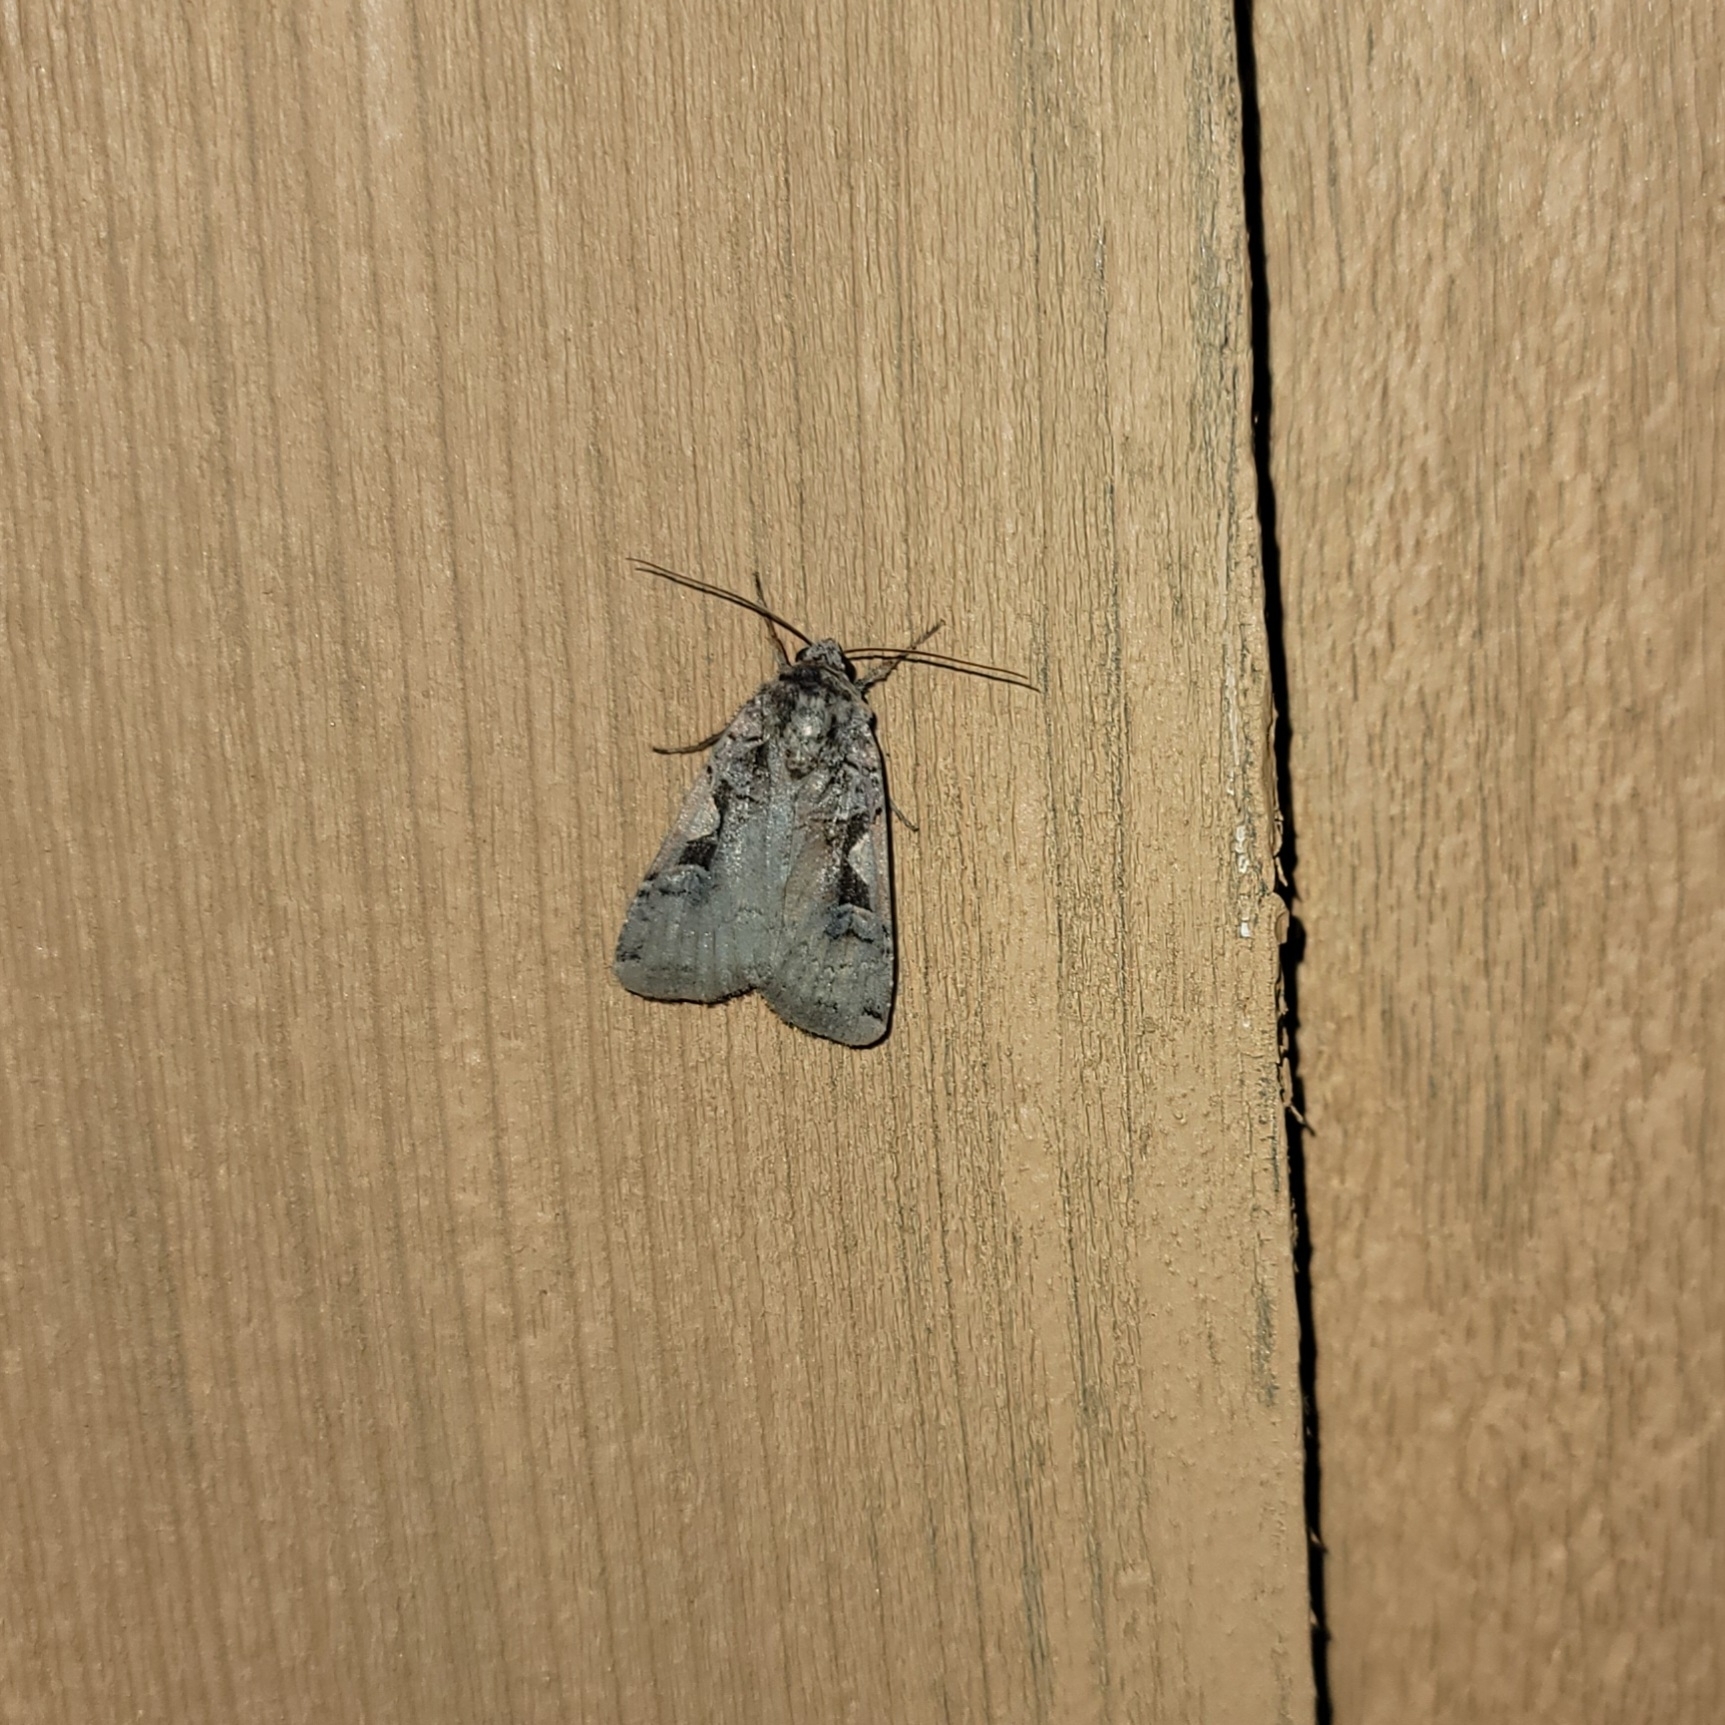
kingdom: Animalia
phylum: Arthropoda
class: Insecta
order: Lepidoptera
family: Noctuidae
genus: Xestia
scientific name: Xestia
